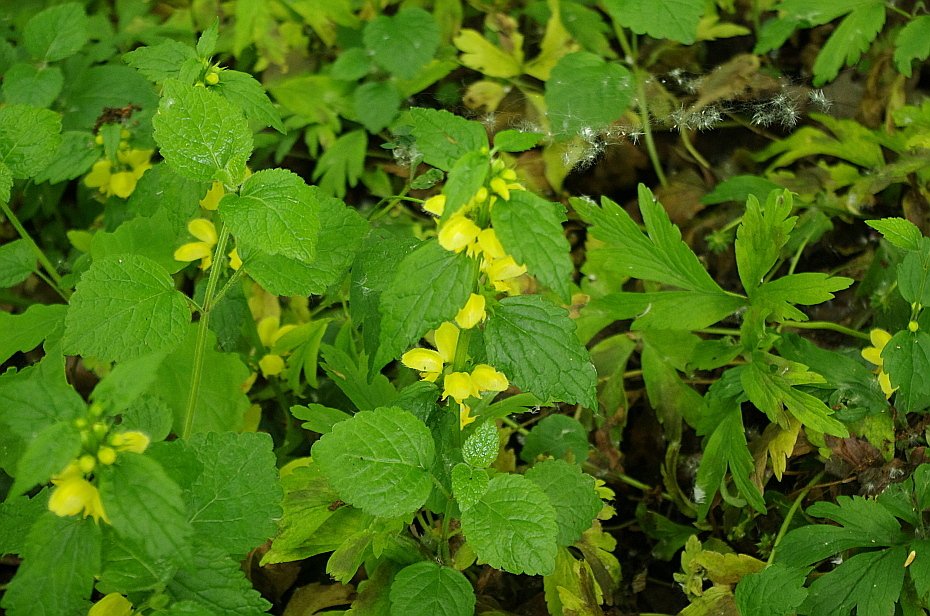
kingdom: Plantae
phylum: Tracheophyta
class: Magnoliopsida
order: Lamiales
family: Lamiaceae
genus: Lamium
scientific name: Lamium galeobdolon
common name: Yellow archangel
